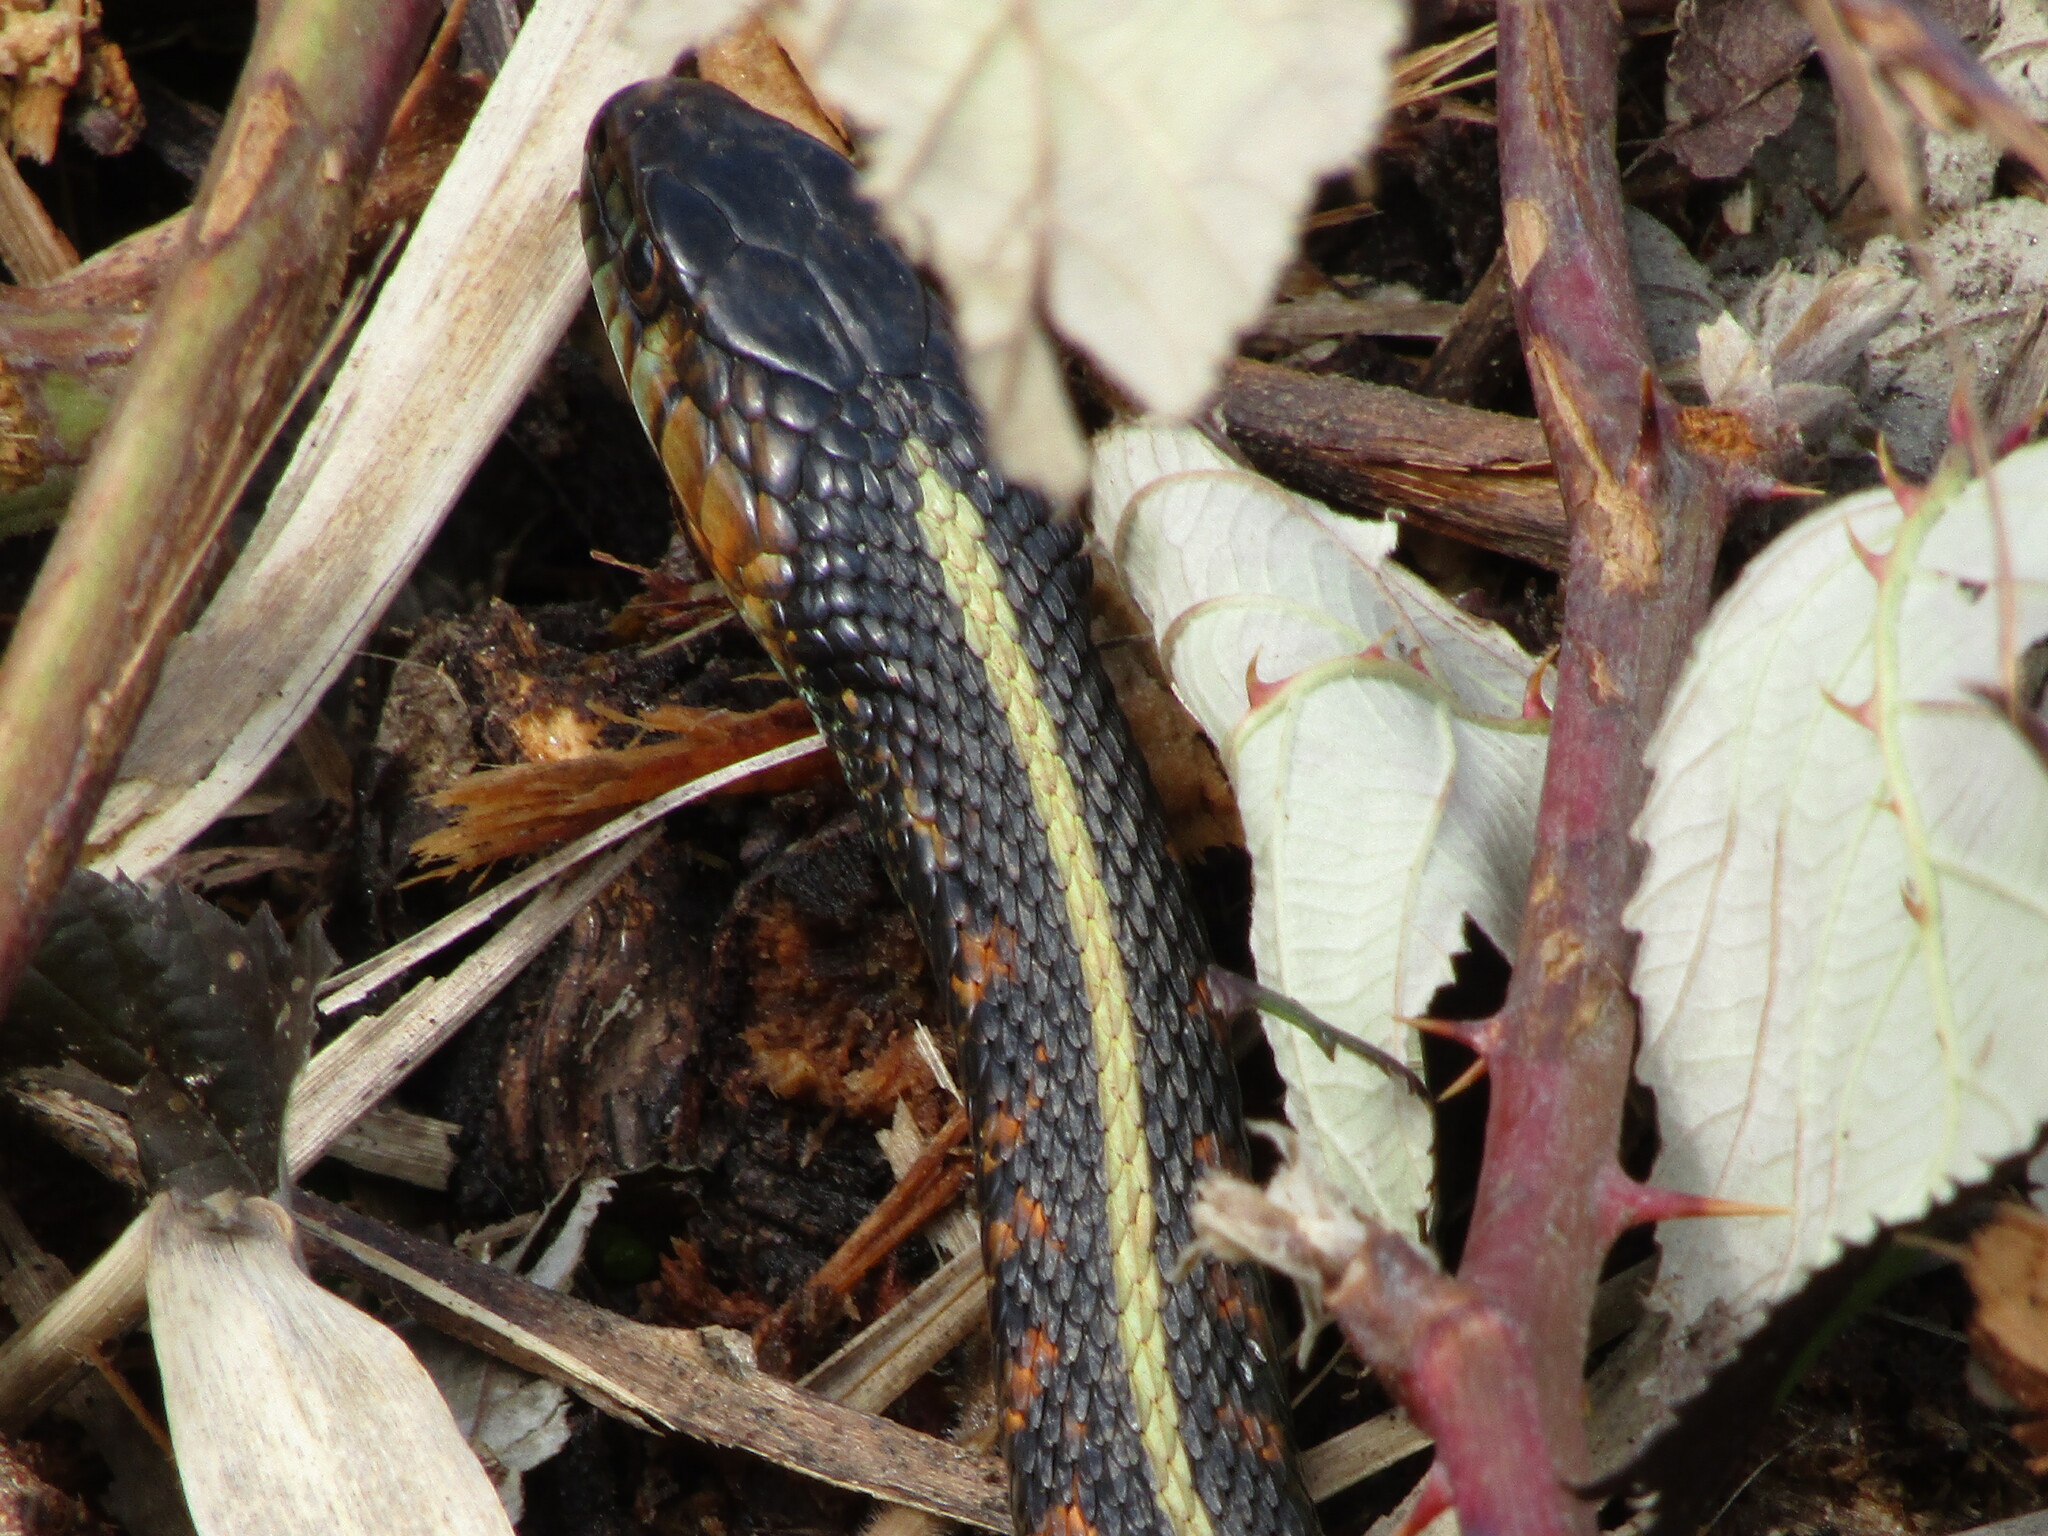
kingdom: Animalia
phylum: Chordata
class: Squamata
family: Colubridae
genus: Thamnophis
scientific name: Thamnophis sirtalis
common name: Common garter snake
